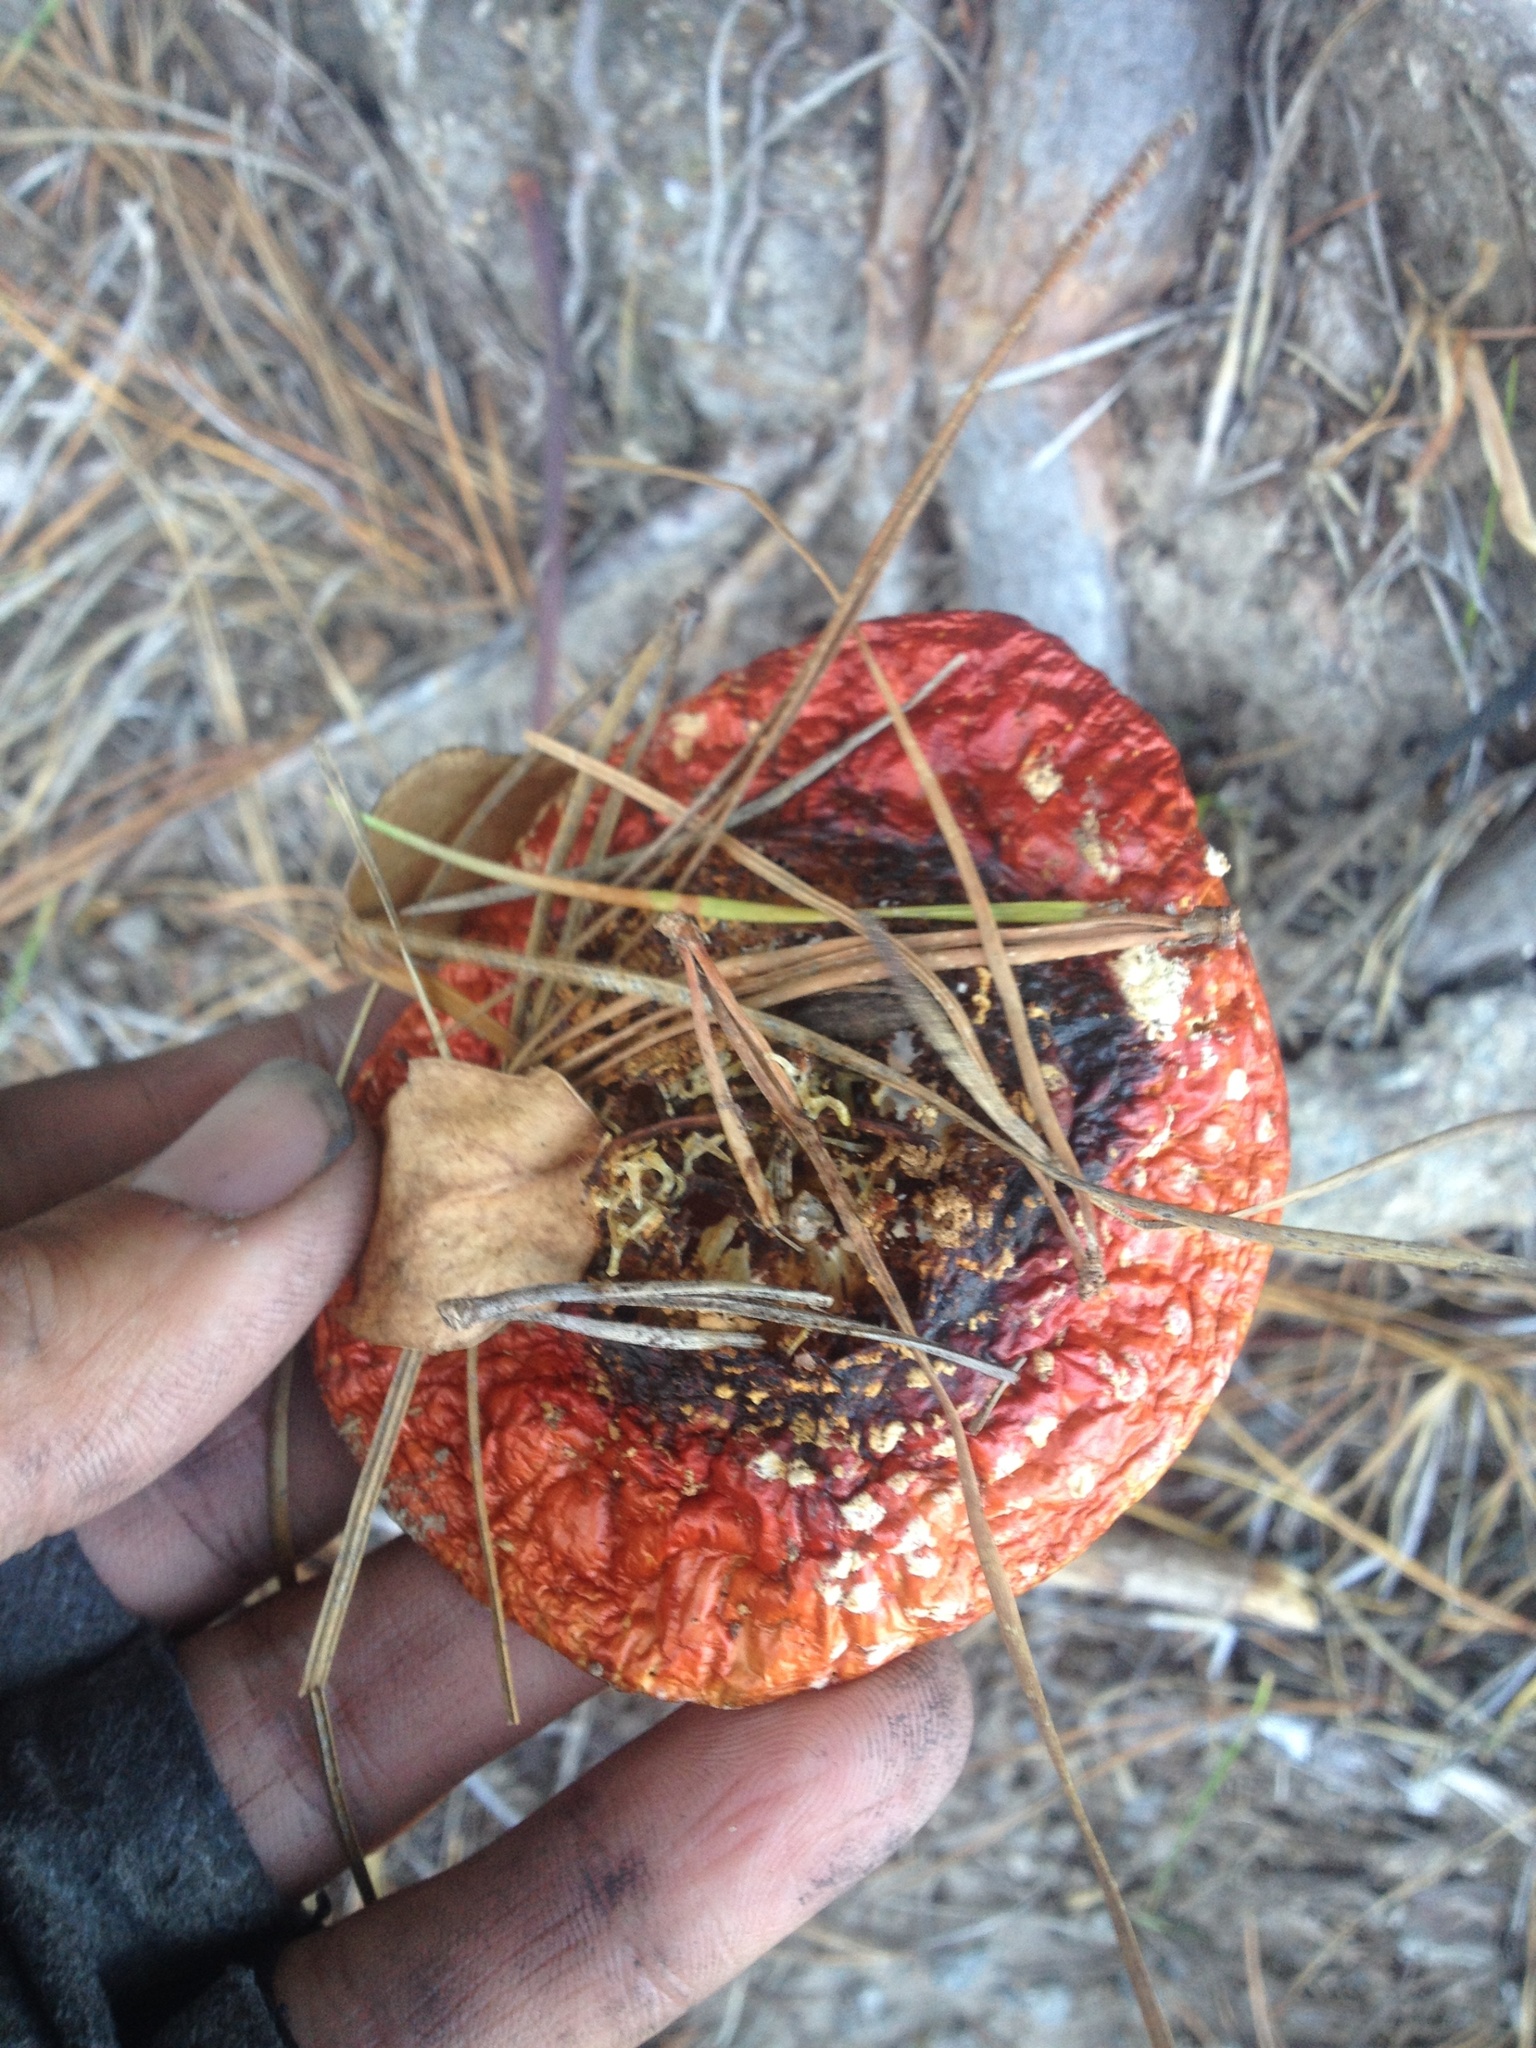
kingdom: Fungi
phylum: Basidiomycota
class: Agaricomycetes
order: Agaricales
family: Amanitaceae
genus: Amanita
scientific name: Amanita muscaria
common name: Fly agaric
